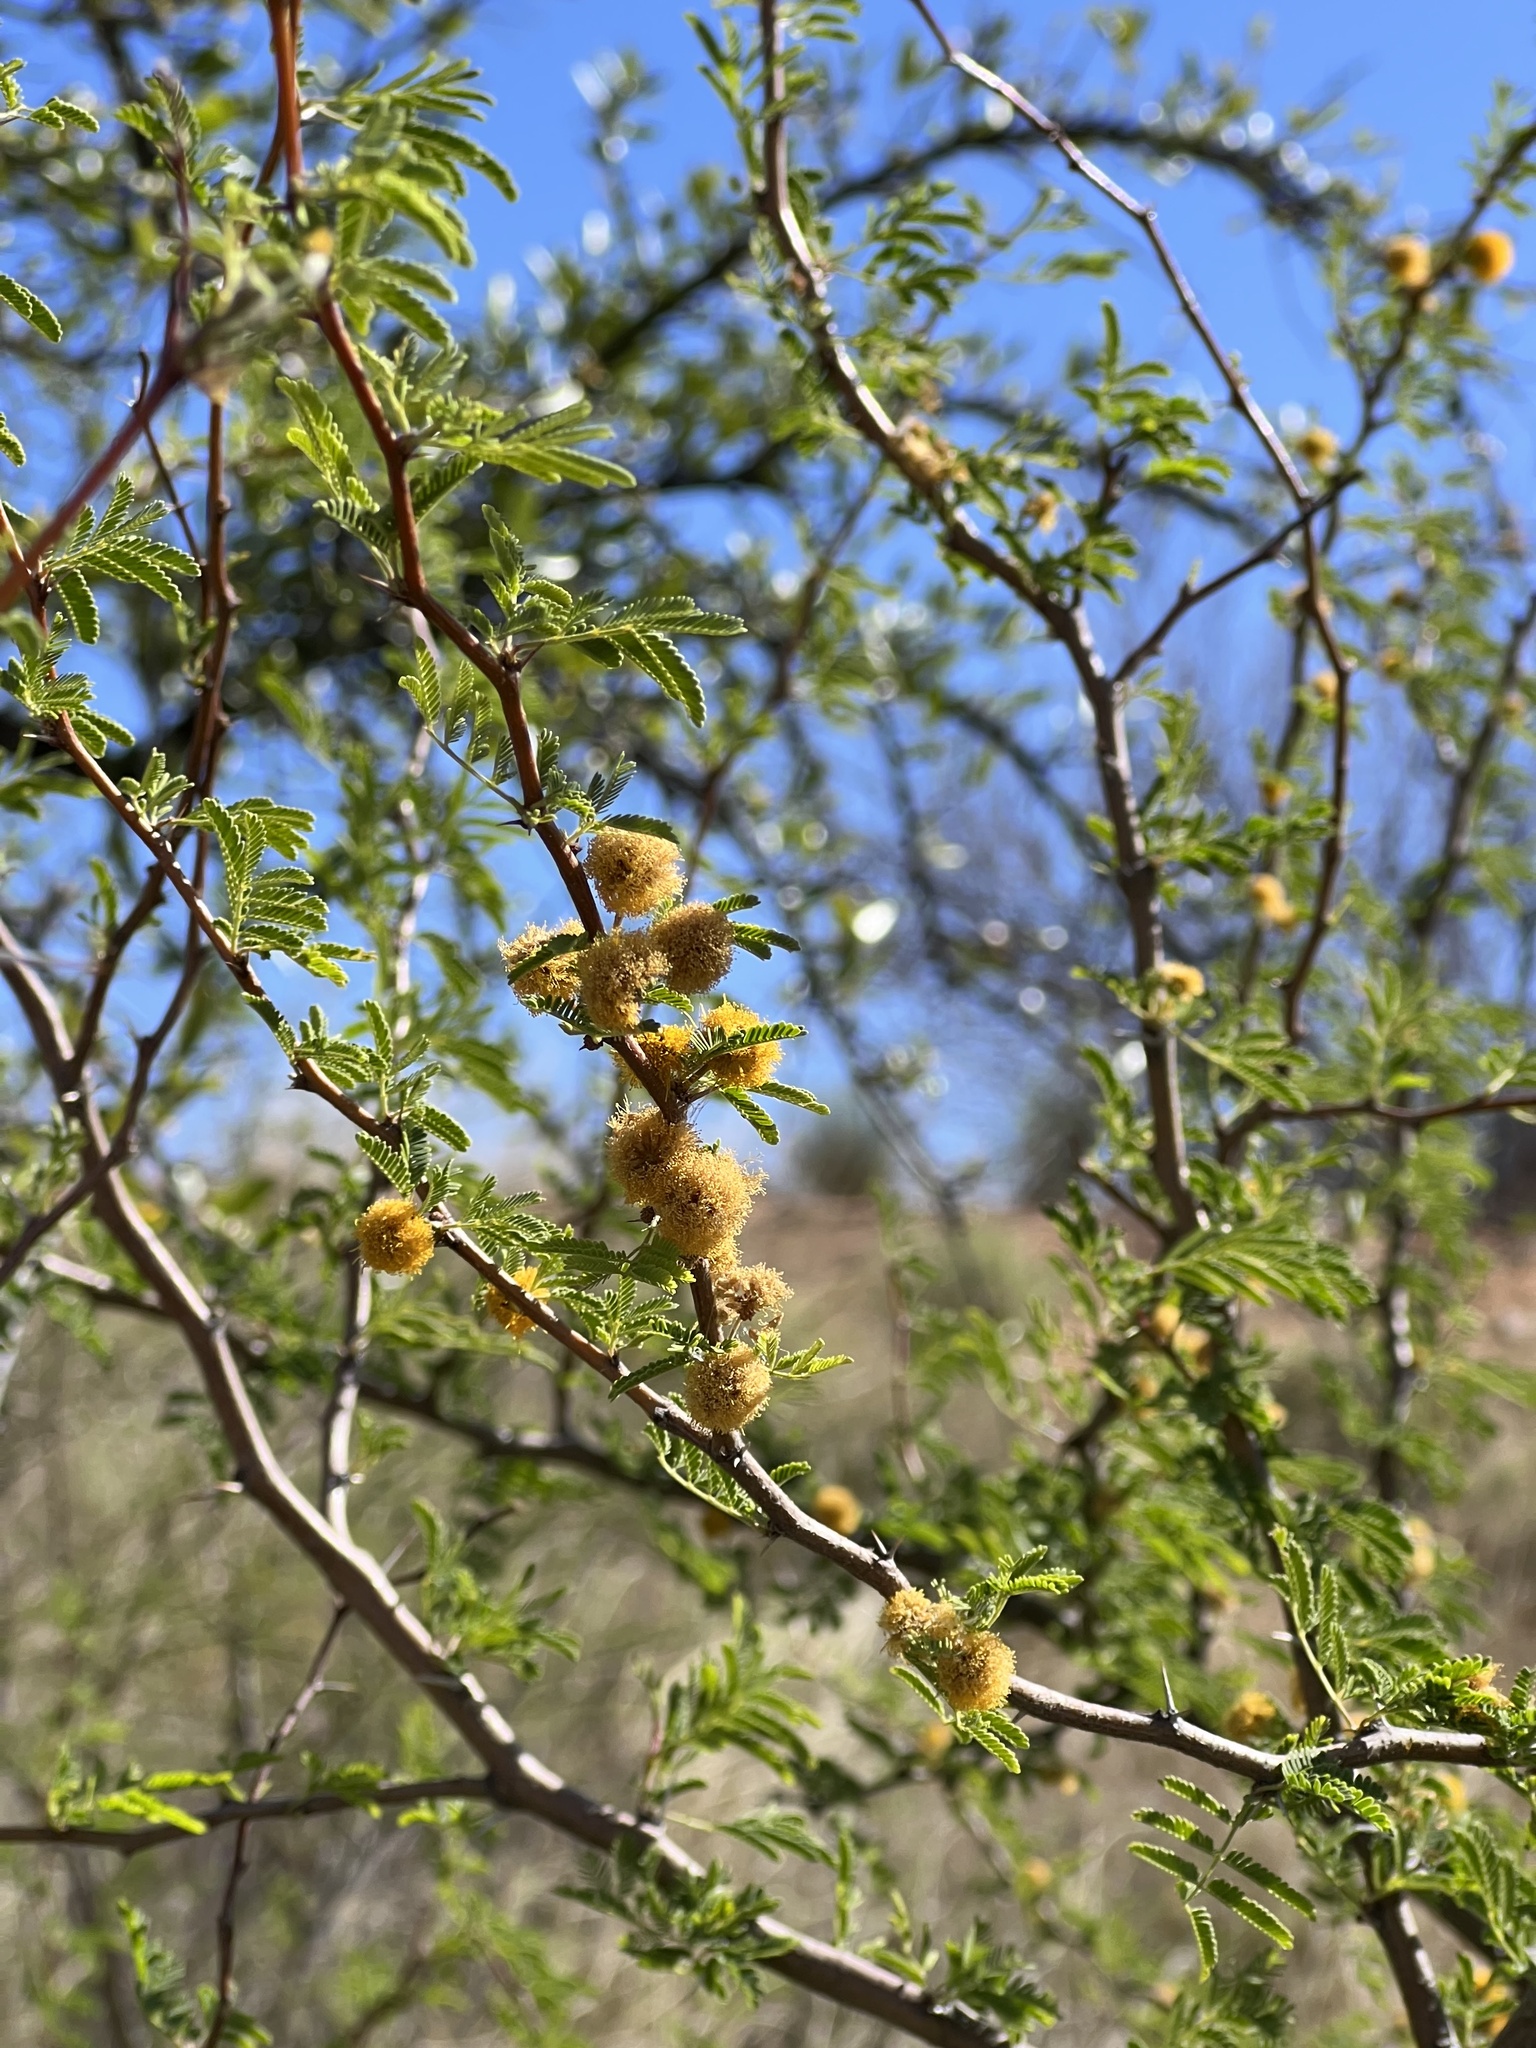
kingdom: Plantae
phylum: Tracheophyta
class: Magnoliopsida
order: Fabales
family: Fabaceae
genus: Vachellia
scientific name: Vachellia farnesiana
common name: Sweet acacia
